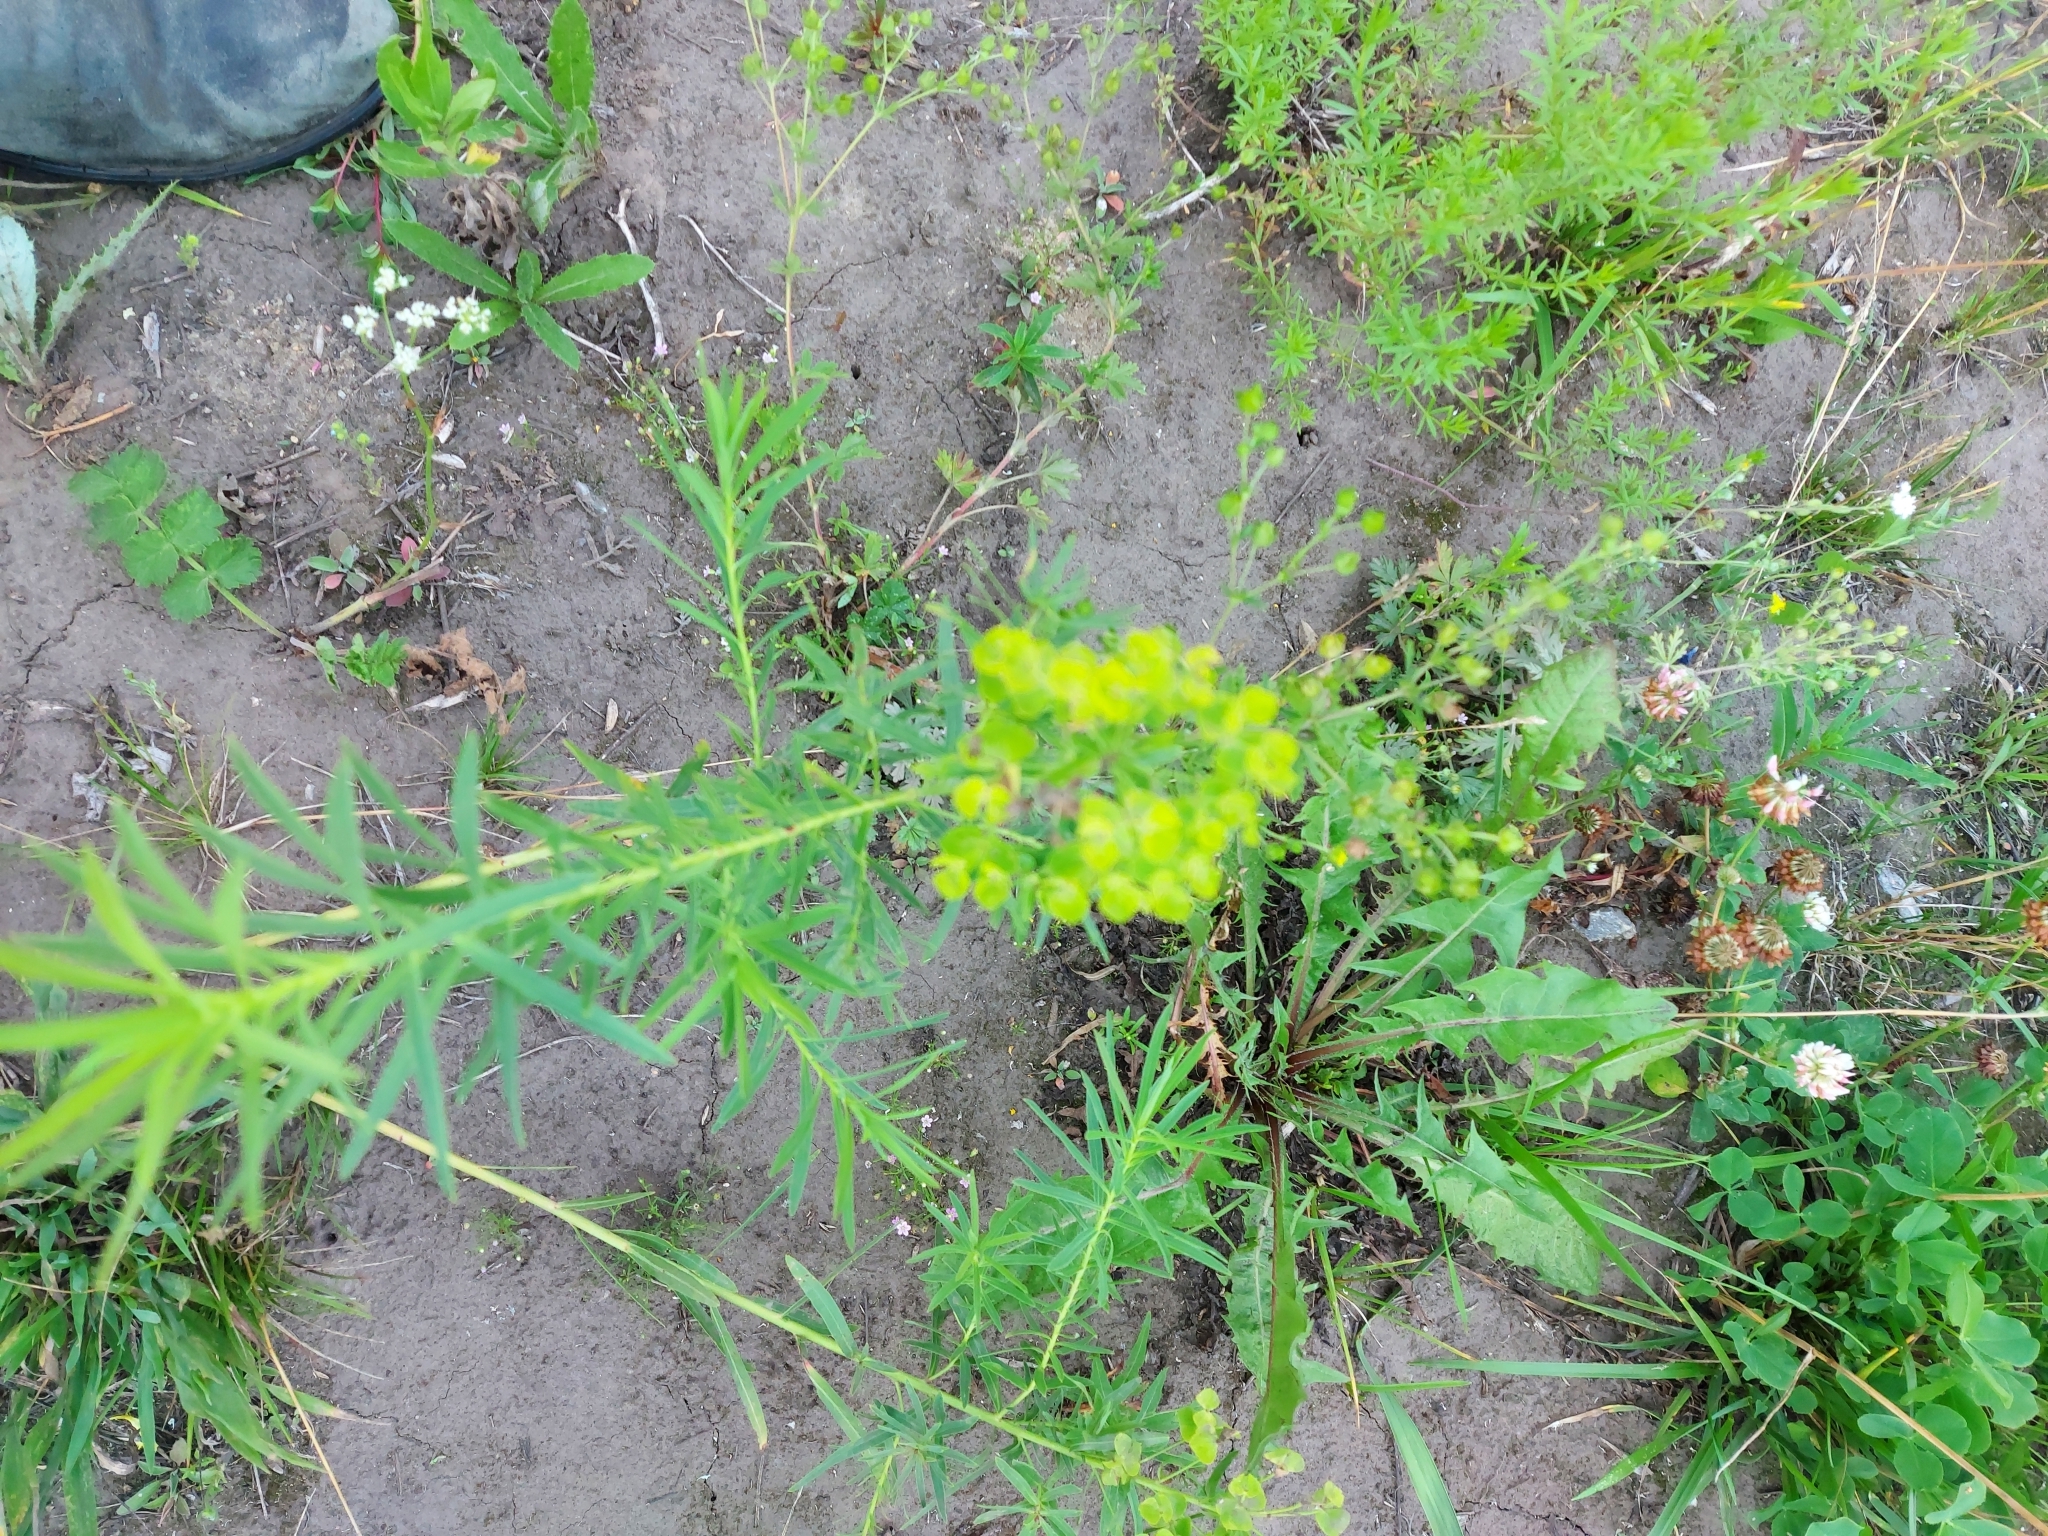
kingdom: Plantae
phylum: Tracheophyta
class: Magnoliopsida
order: Malpighiales
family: Euphorbiaceae
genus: Euphorbia
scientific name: Euphorbia virgata
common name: Leafy spurge
